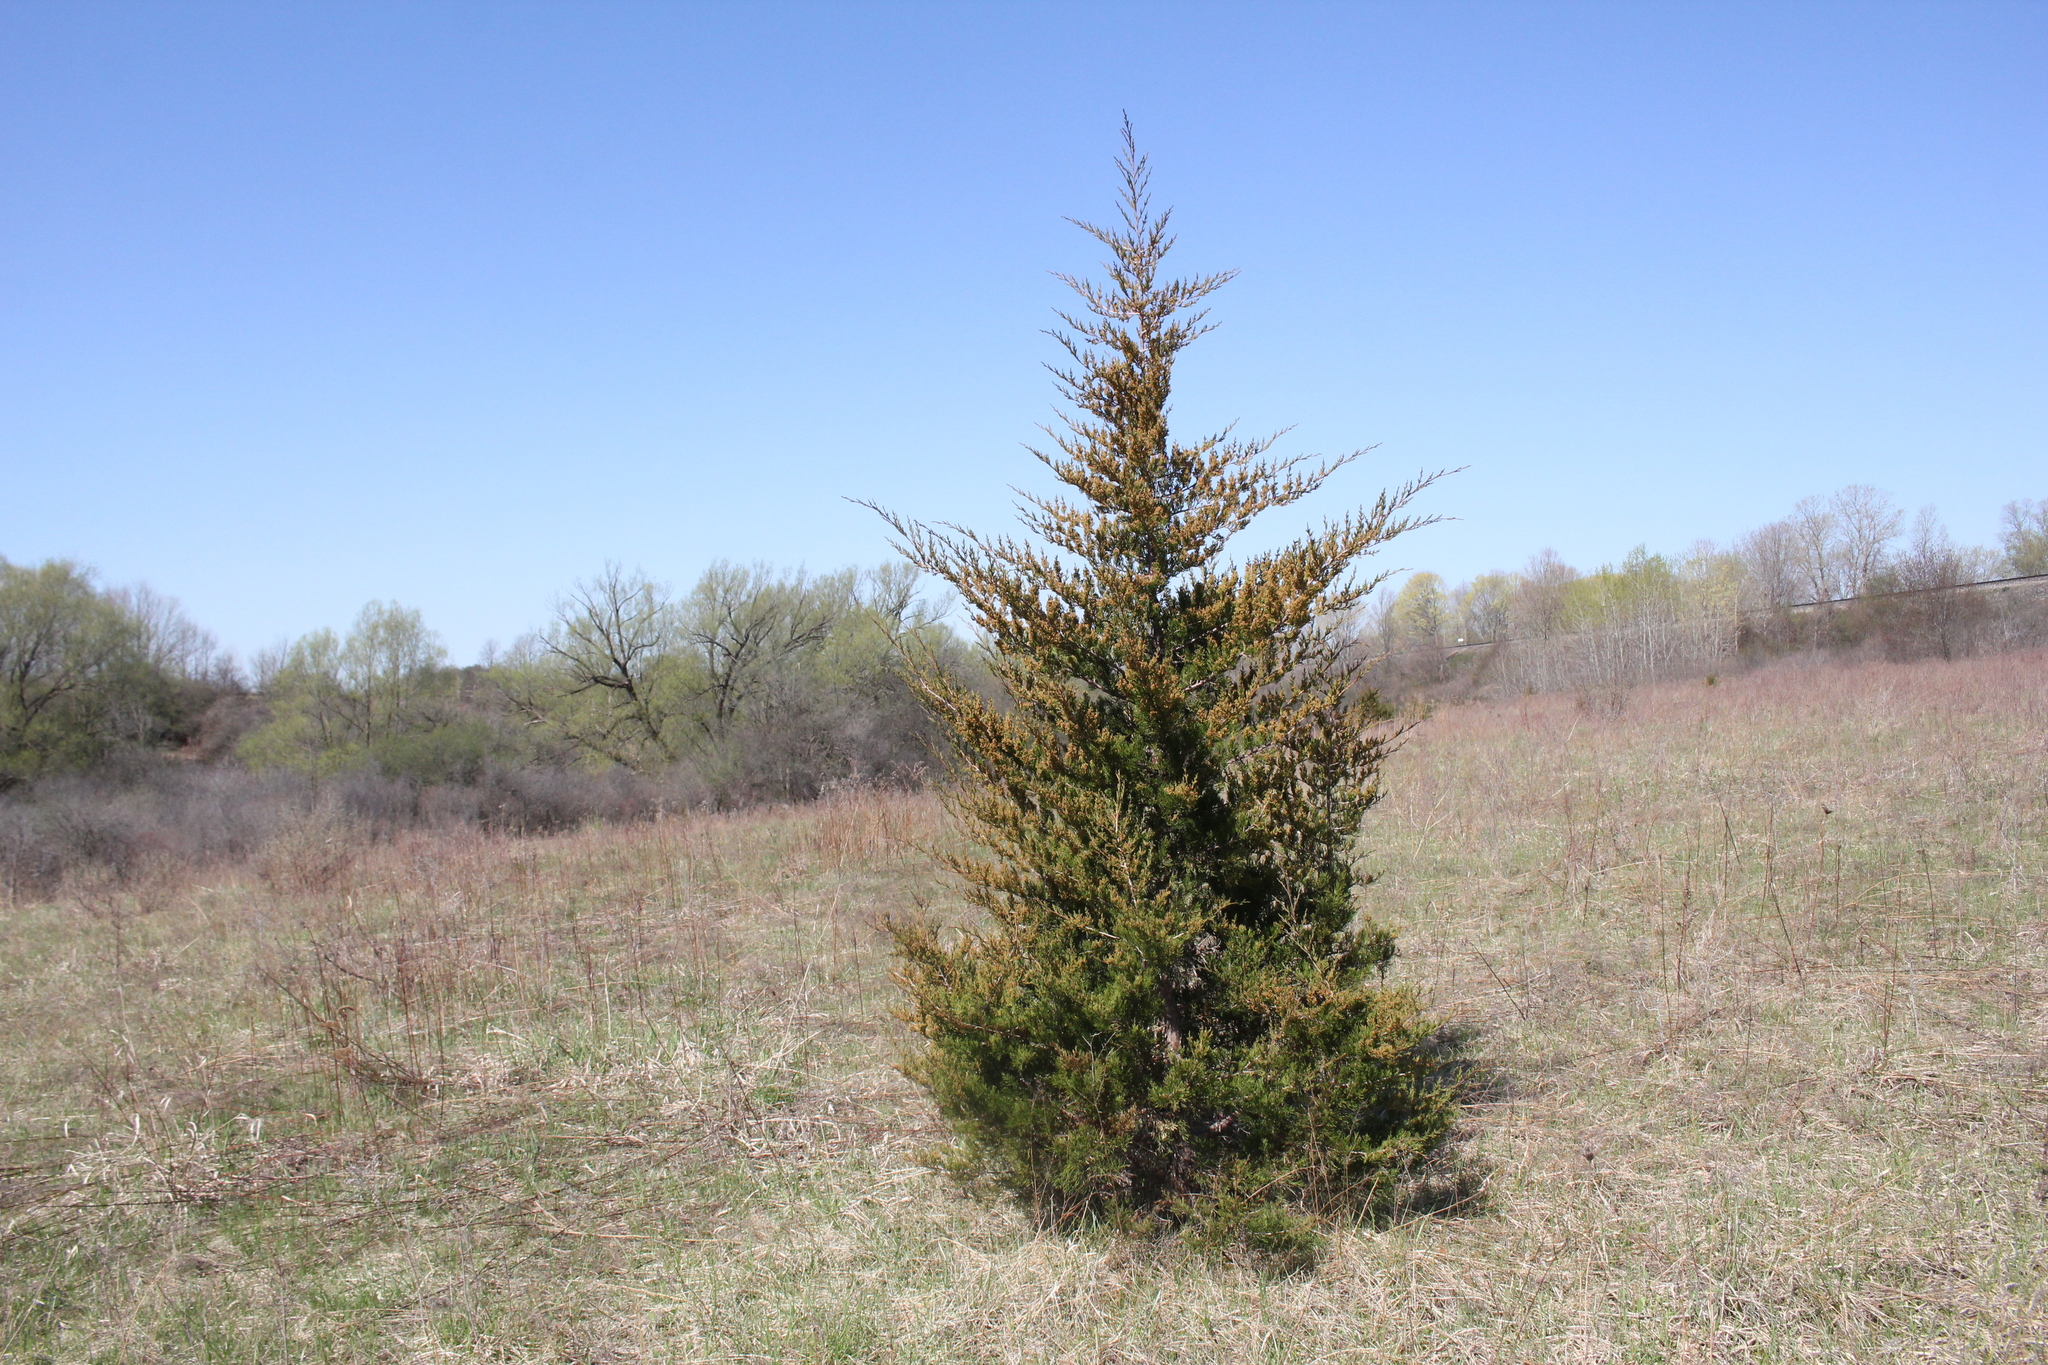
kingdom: Plantae
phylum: Tracheophyta
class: Pinopsida
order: Pinales
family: Cupressaceae
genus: Juniperus
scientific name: Juniperus virginiana
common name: Red juniper
